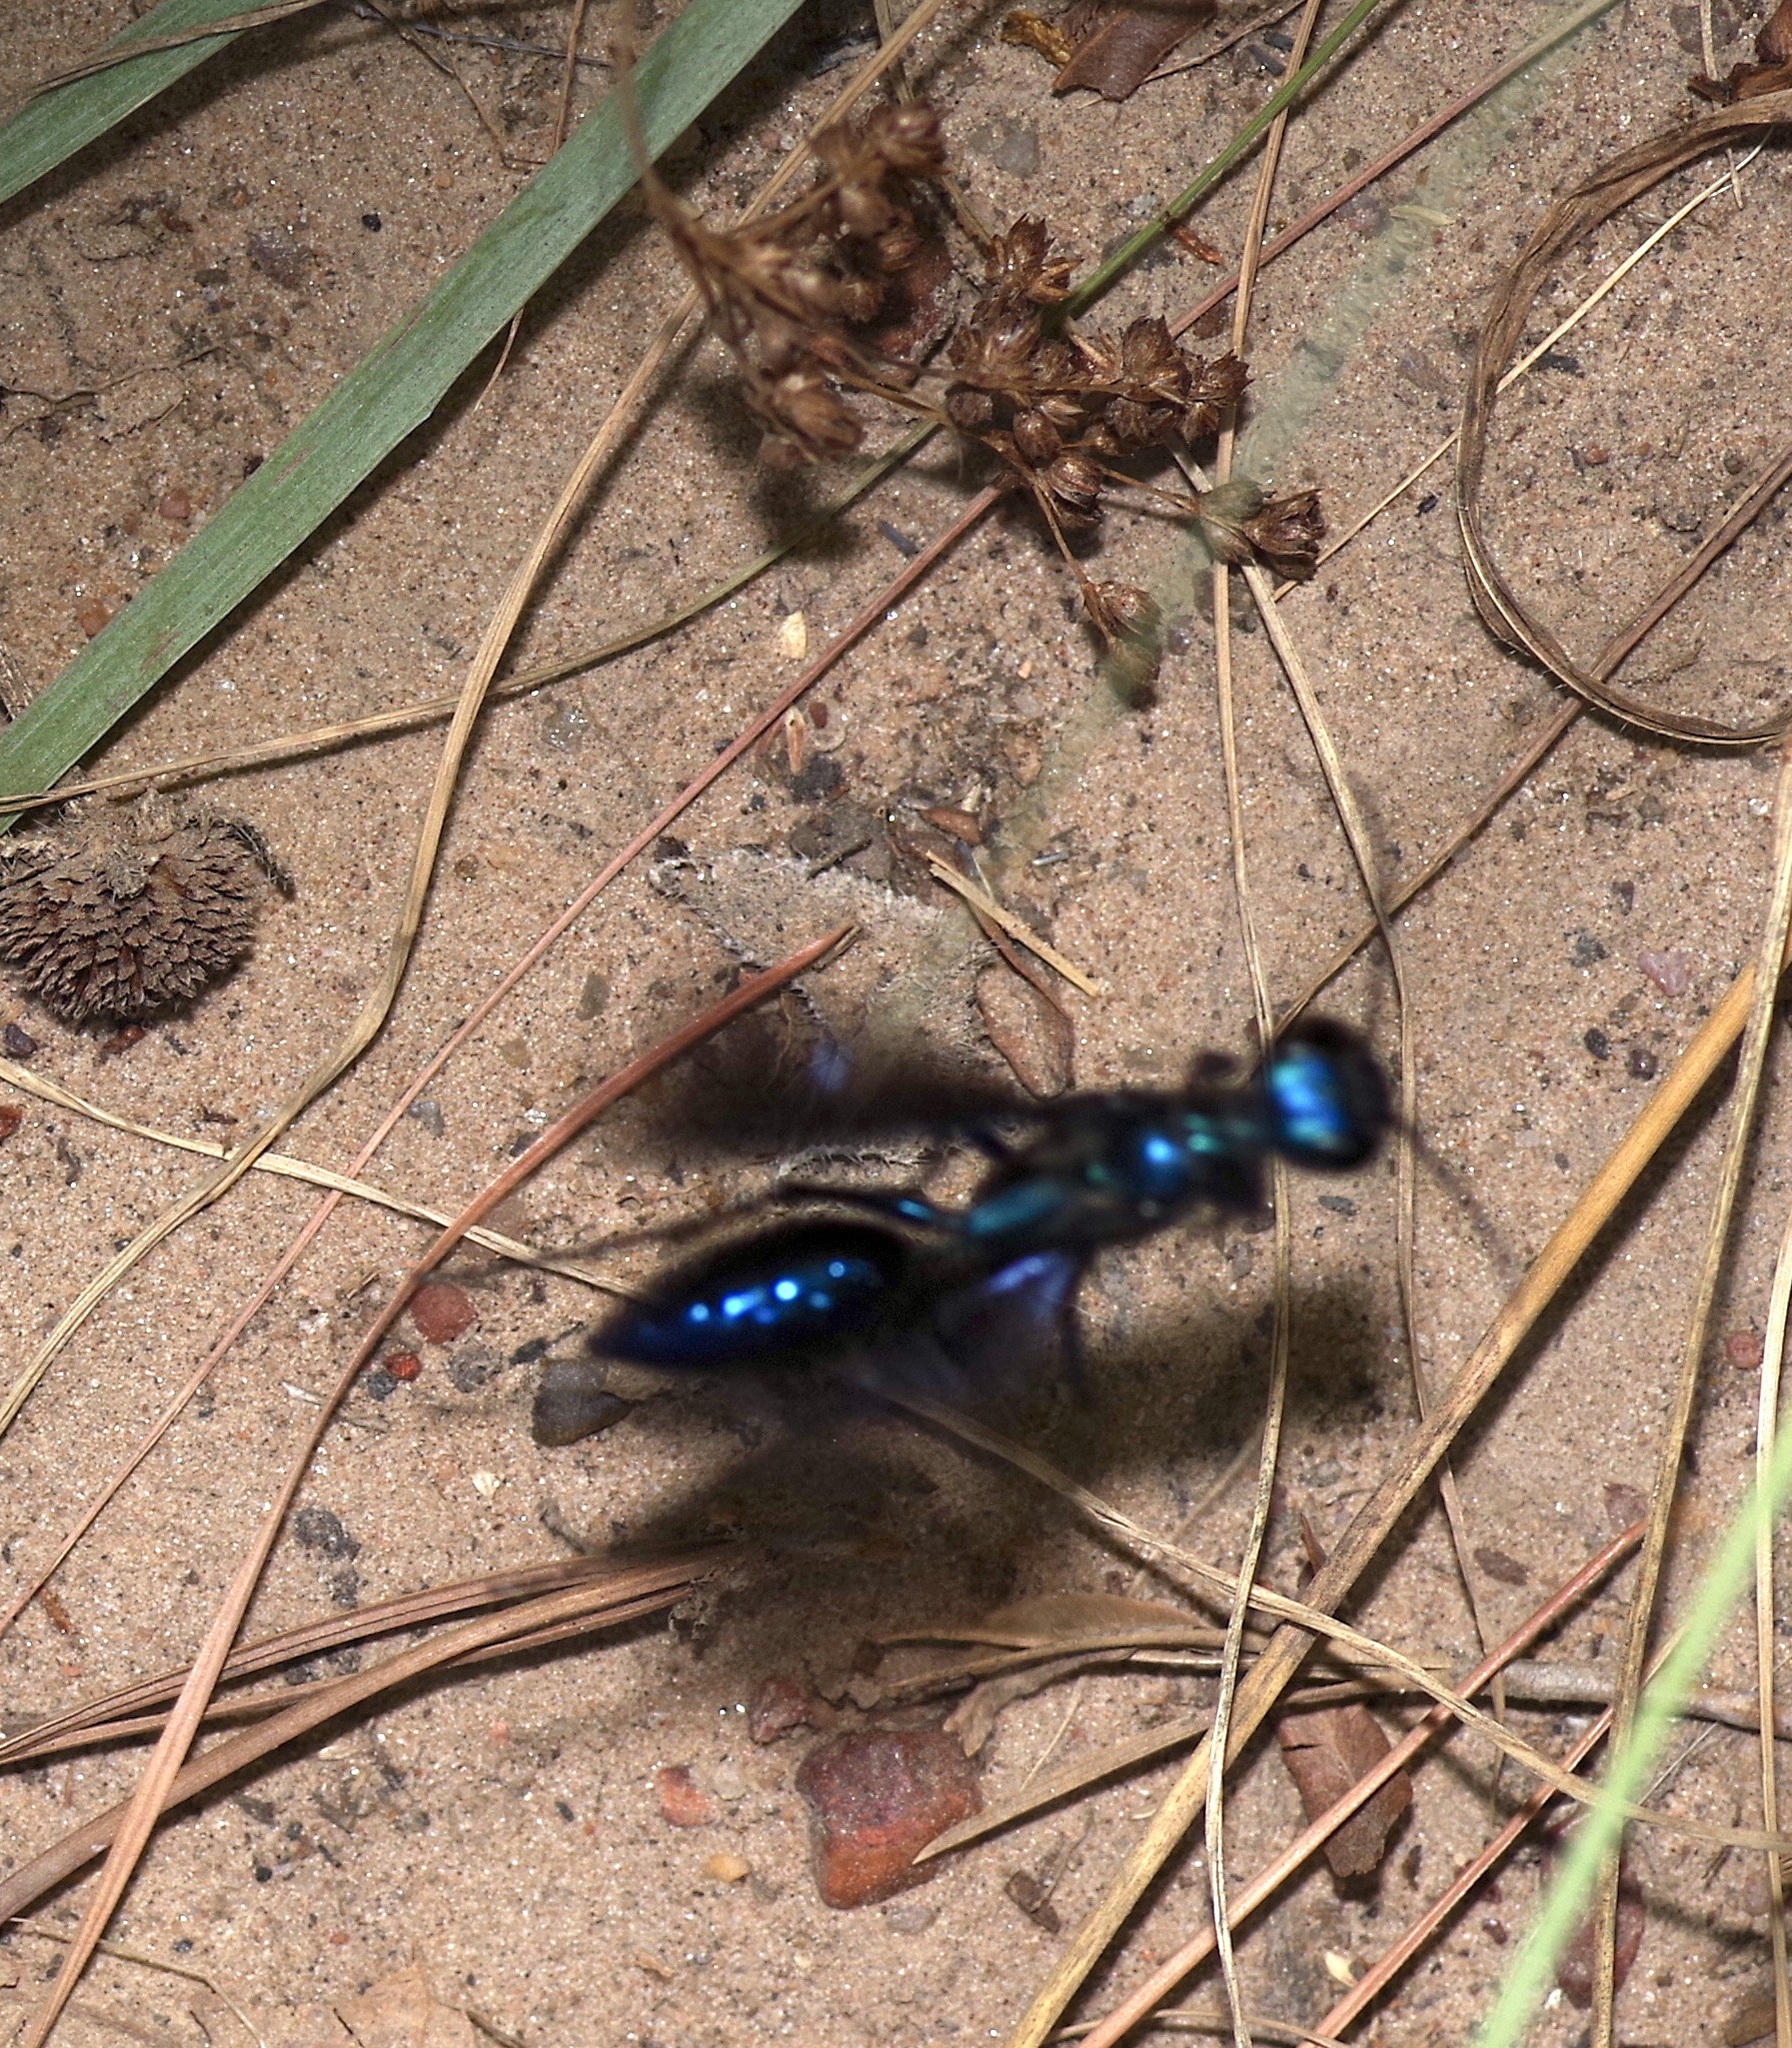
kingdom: Animalia
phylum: Arthropoda
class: Insecta
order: Hymenoptera
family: Sphecidae
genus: Chlorion
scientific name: Chlorion aerarium
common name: Steel-blue cricket hunter
